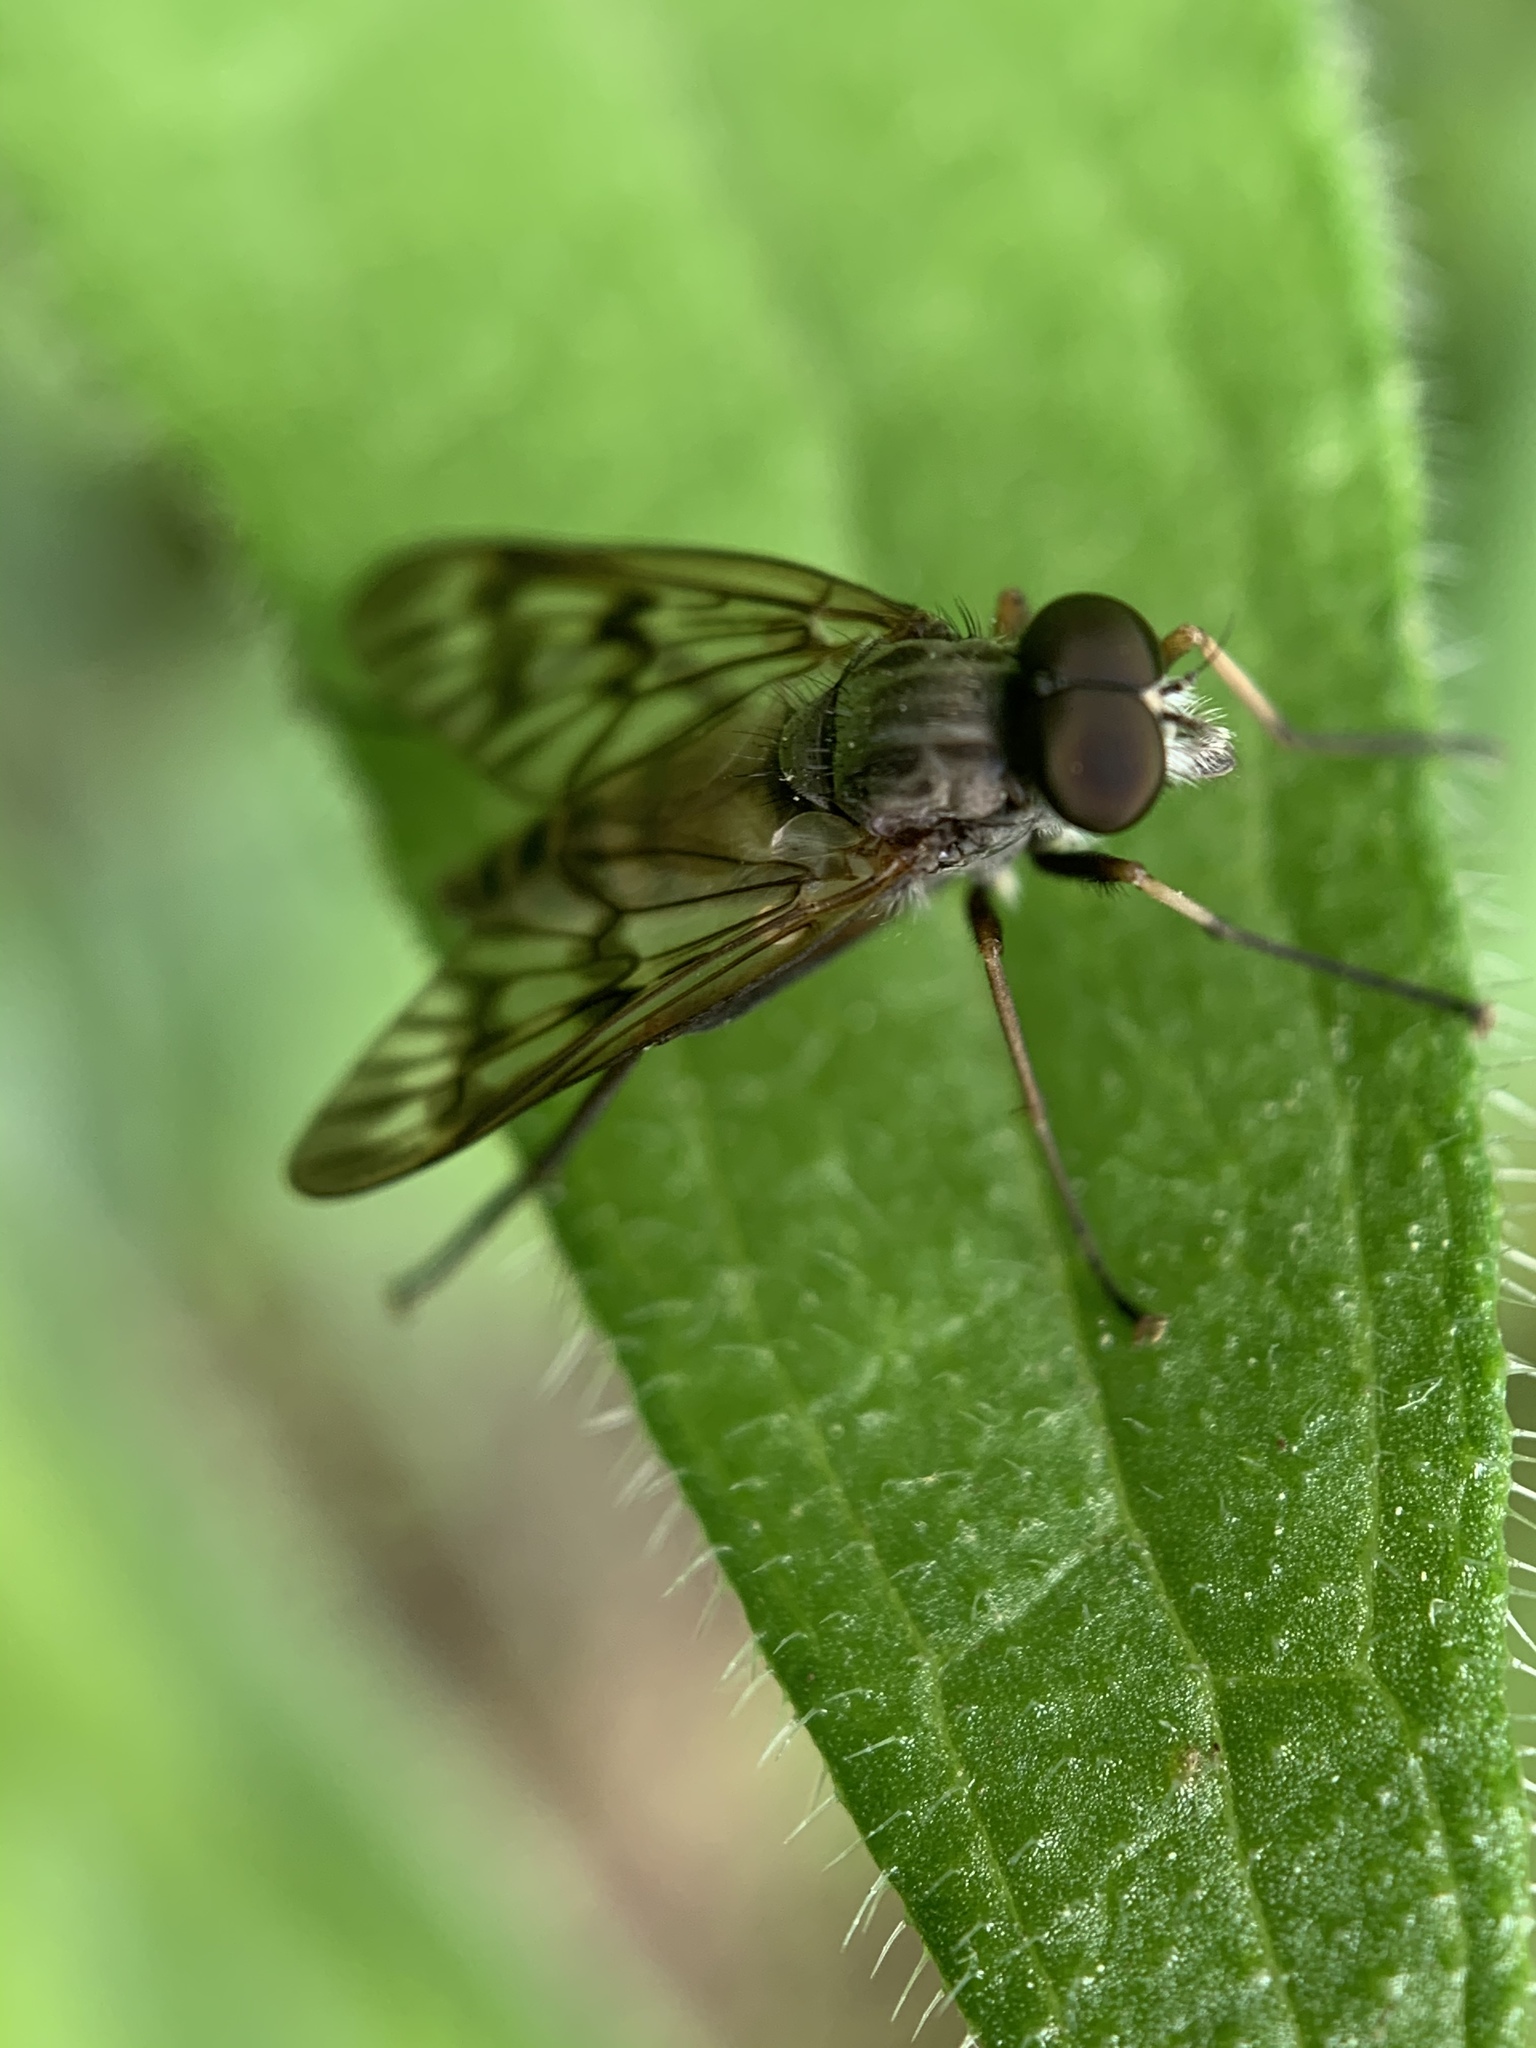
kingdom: Animalia
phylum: Arthropoda
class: Insecta
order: Diptera
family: Rhagionidae
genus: Rhagio
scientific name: Rhagio mystaceus
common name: Common snipe fly
